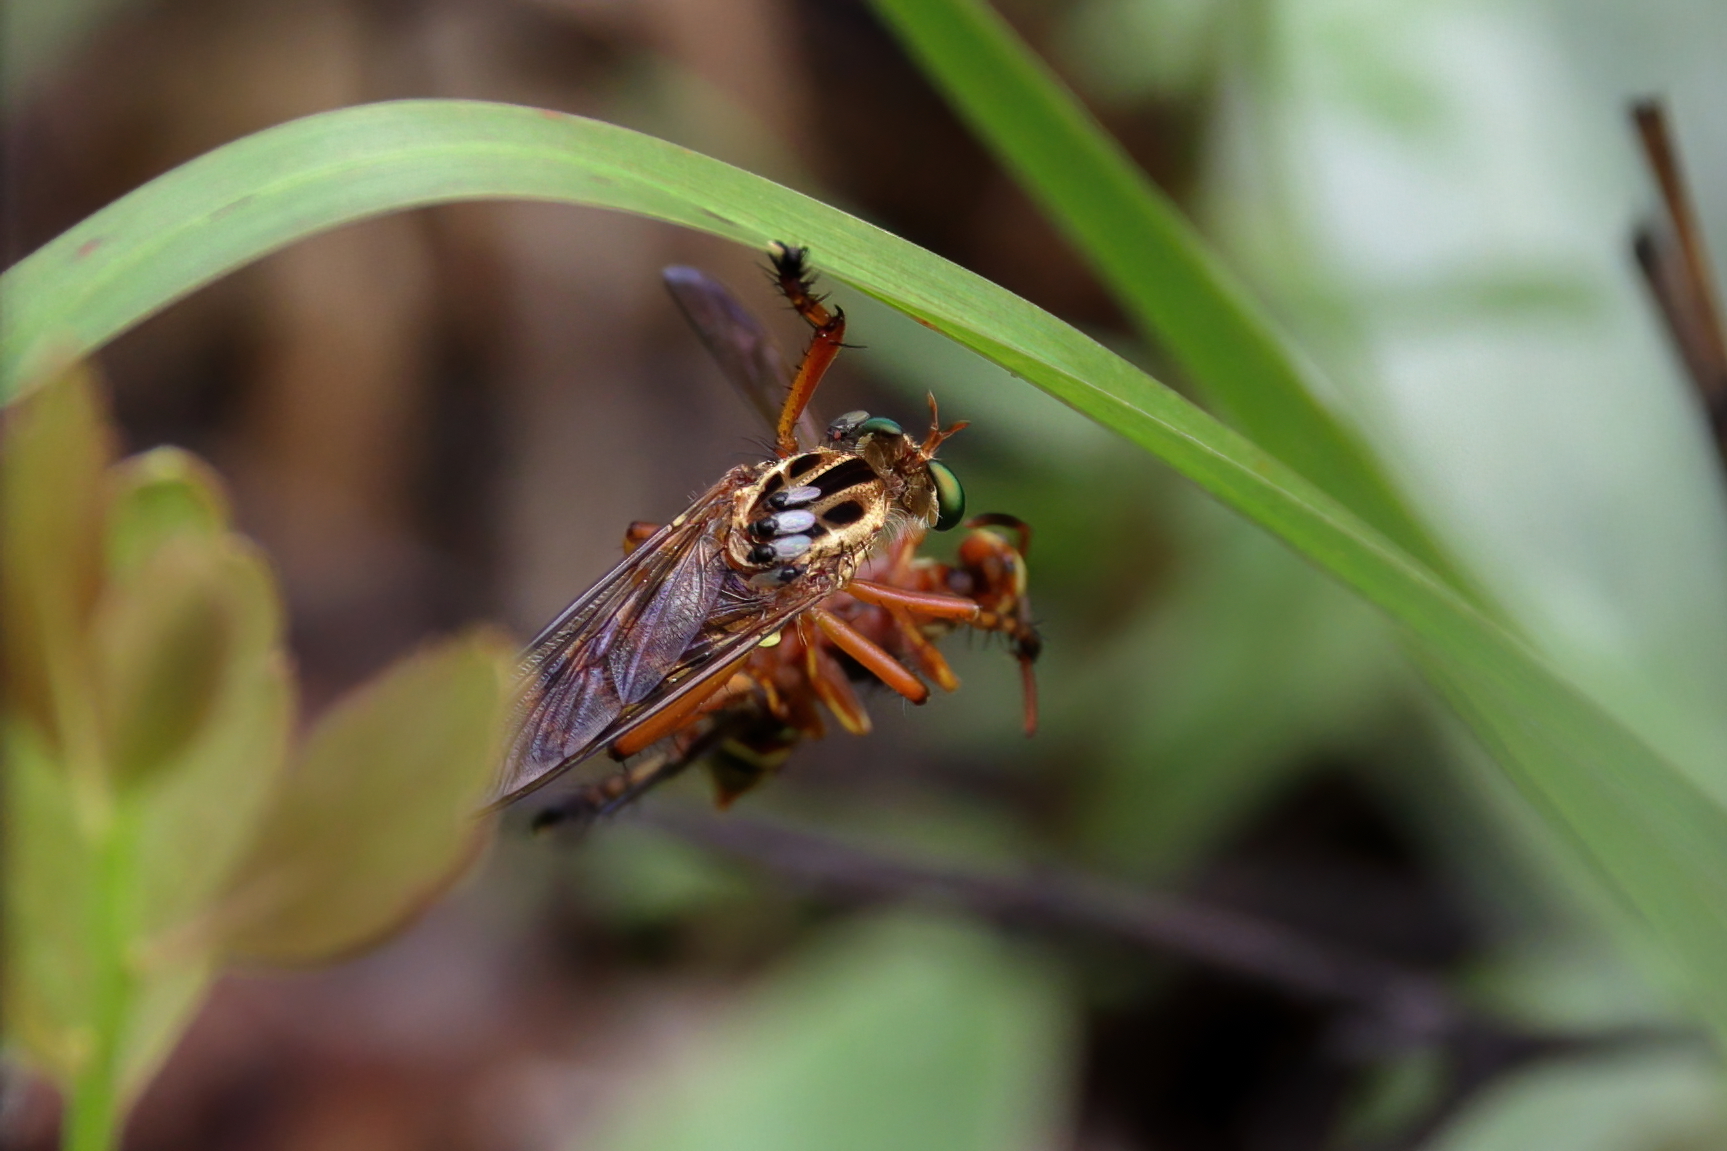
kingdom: Animalia
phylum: Arthropoda
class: Insecta
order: Diptera
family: Asilidae
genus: Diogmites
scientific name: Diogmites properans
